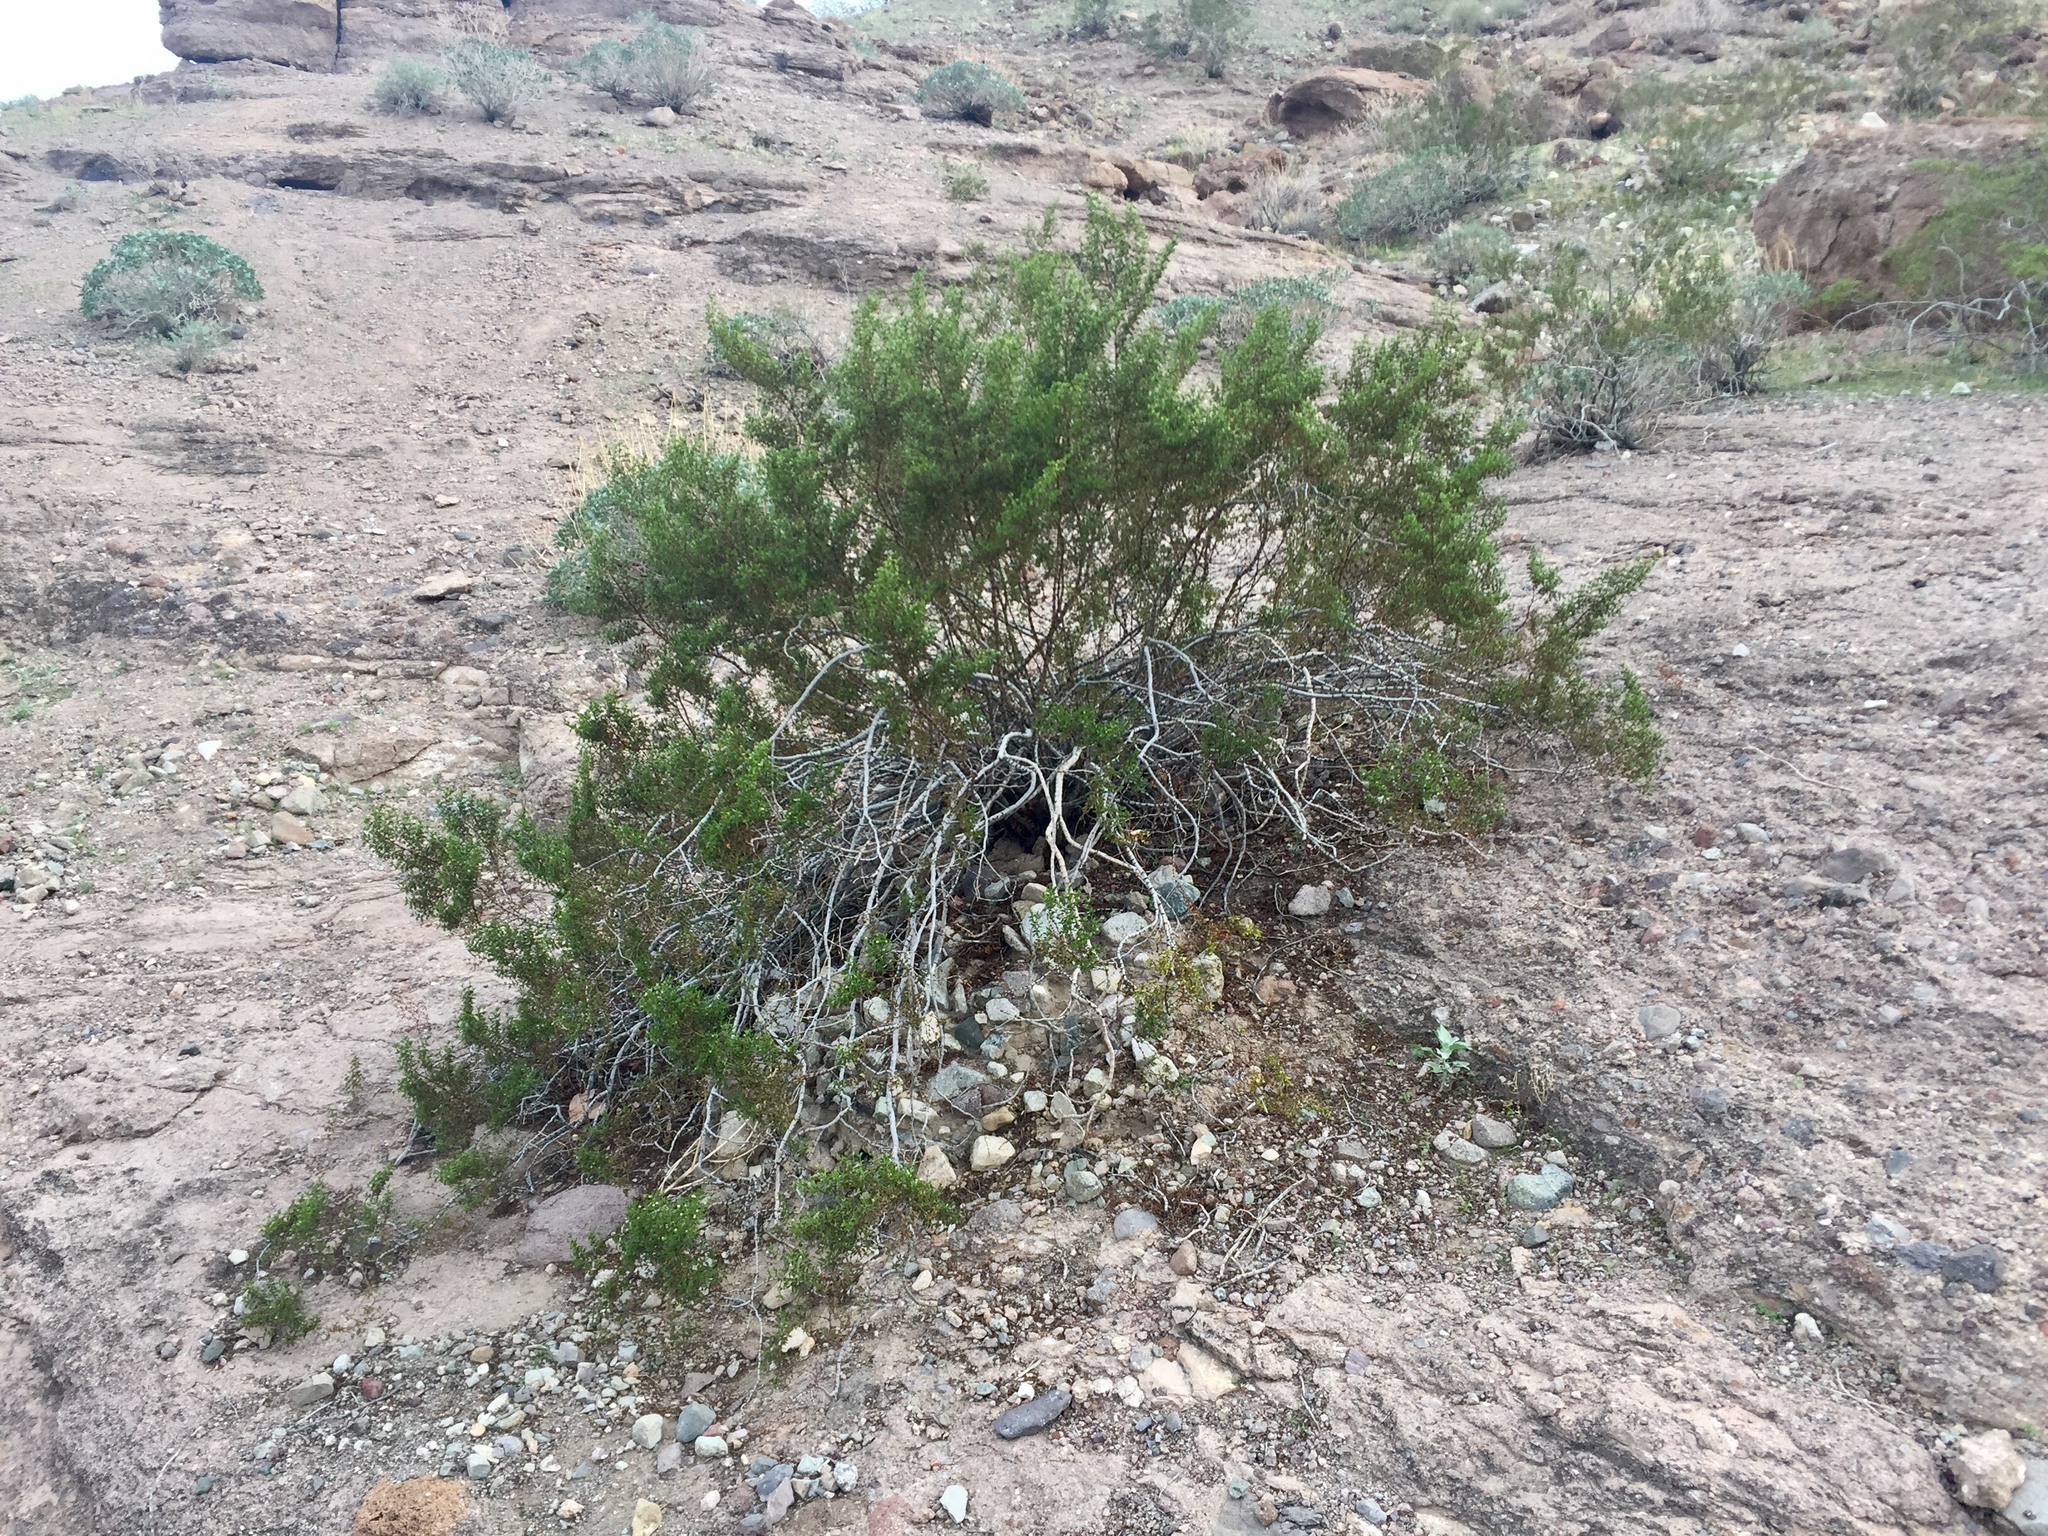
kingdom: Plantae
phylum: Tracheophyta
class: Magnoliopsida
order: Zygophyllales
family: Zygophyllaceae
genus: Larrea
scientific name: Larrea tridentata
